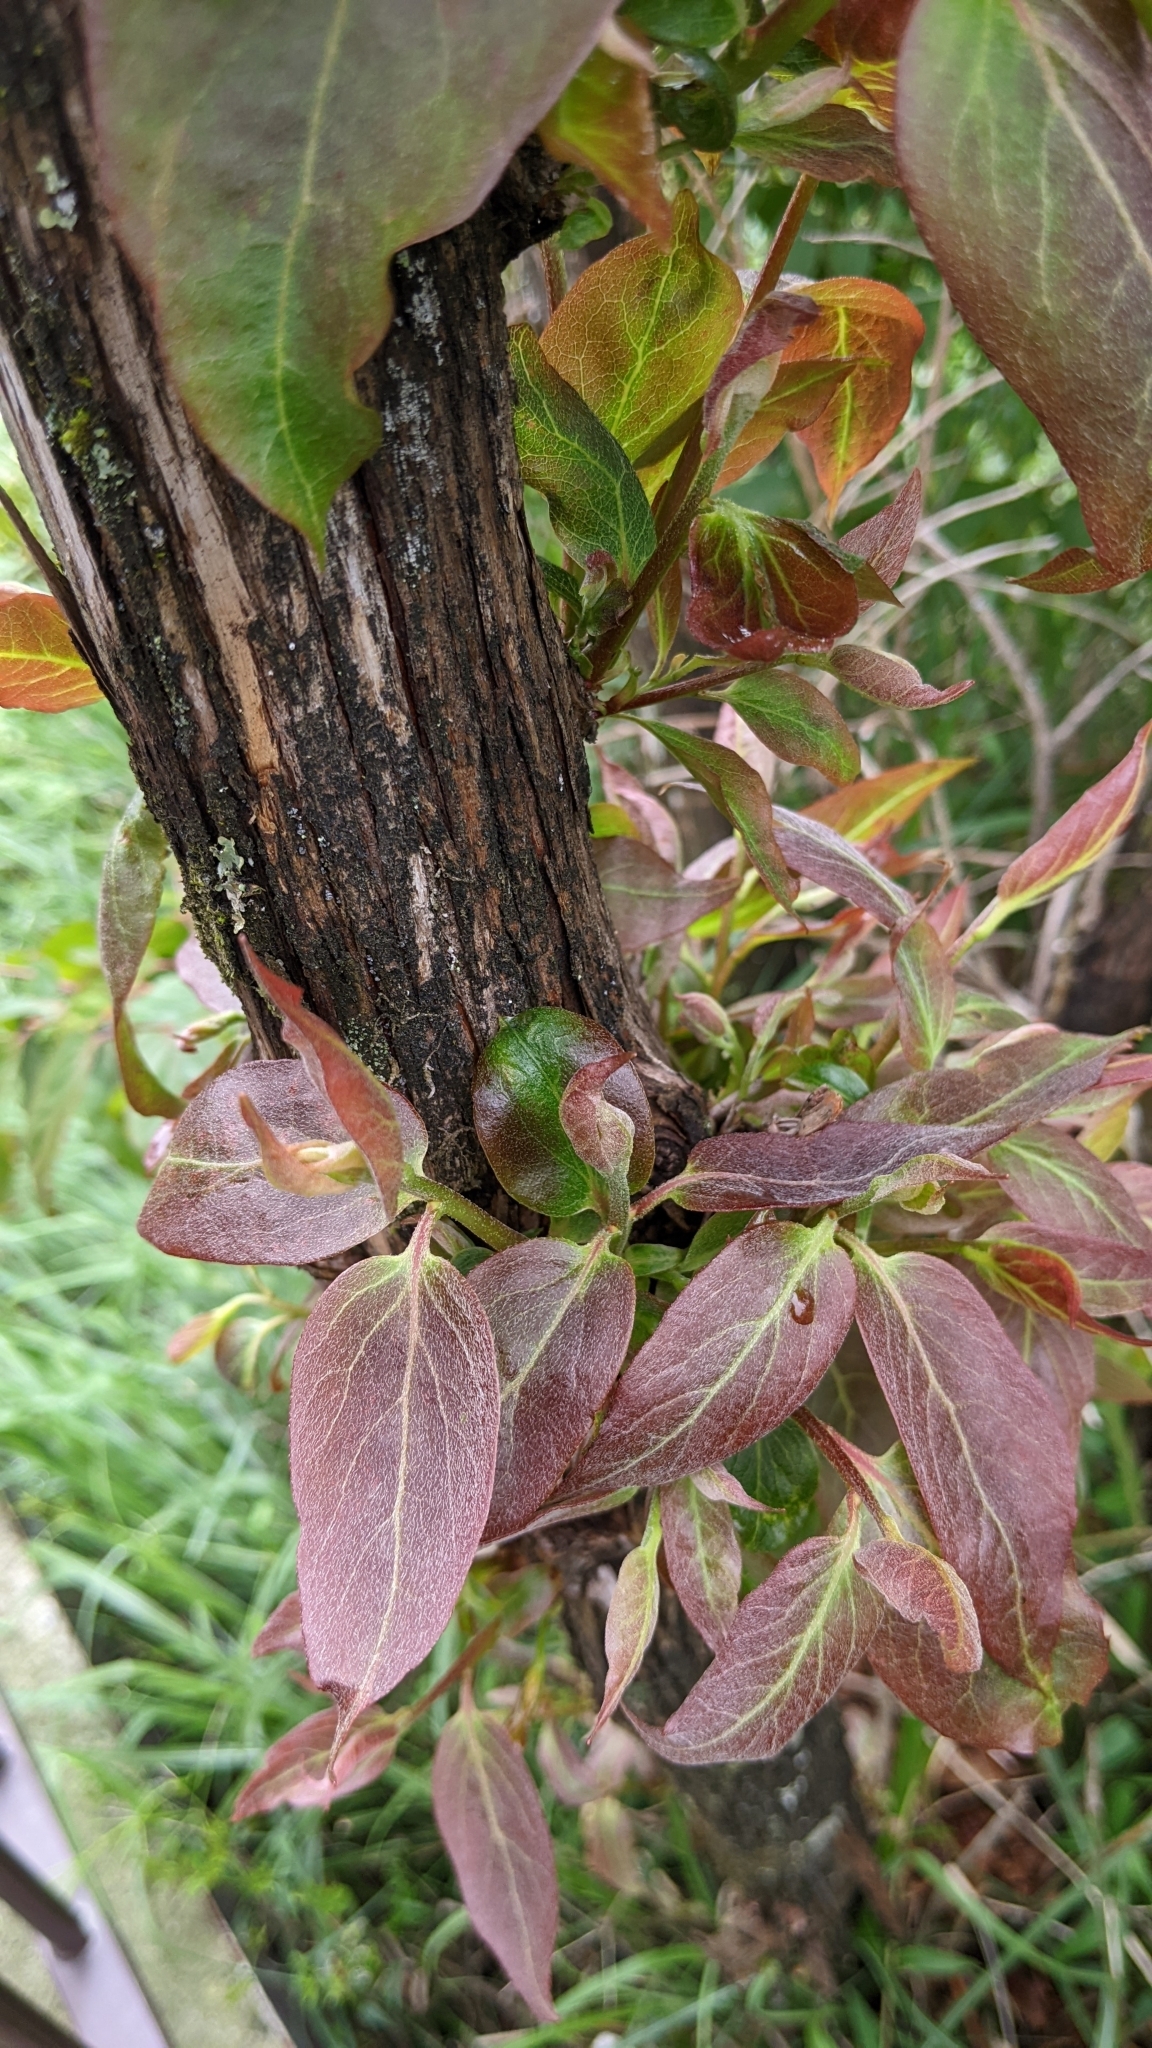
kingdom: Plantae
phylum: Tracheophyta
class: Magnoliopsida
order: Ericales
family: Ericaceae
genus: Lyonia
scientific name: Lyonia ovalifolia
